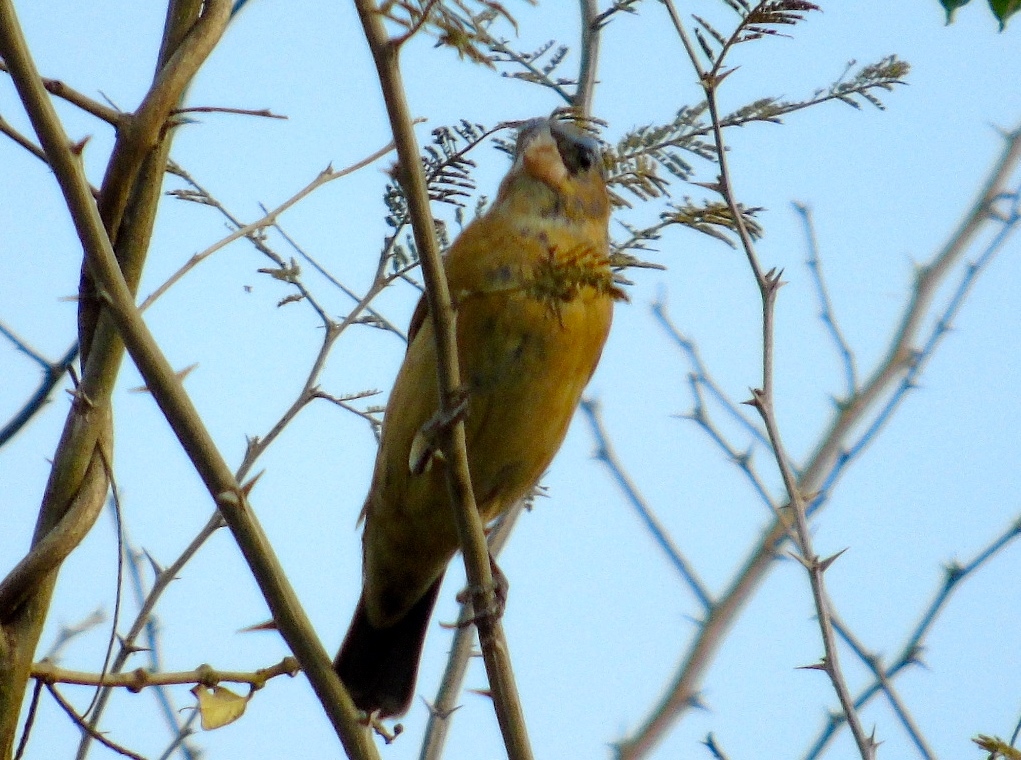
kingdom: Animalia
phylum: Chordata
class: Aves
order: Passeriformes
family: Cardinalidae
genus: Passerina
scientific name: Passerina
